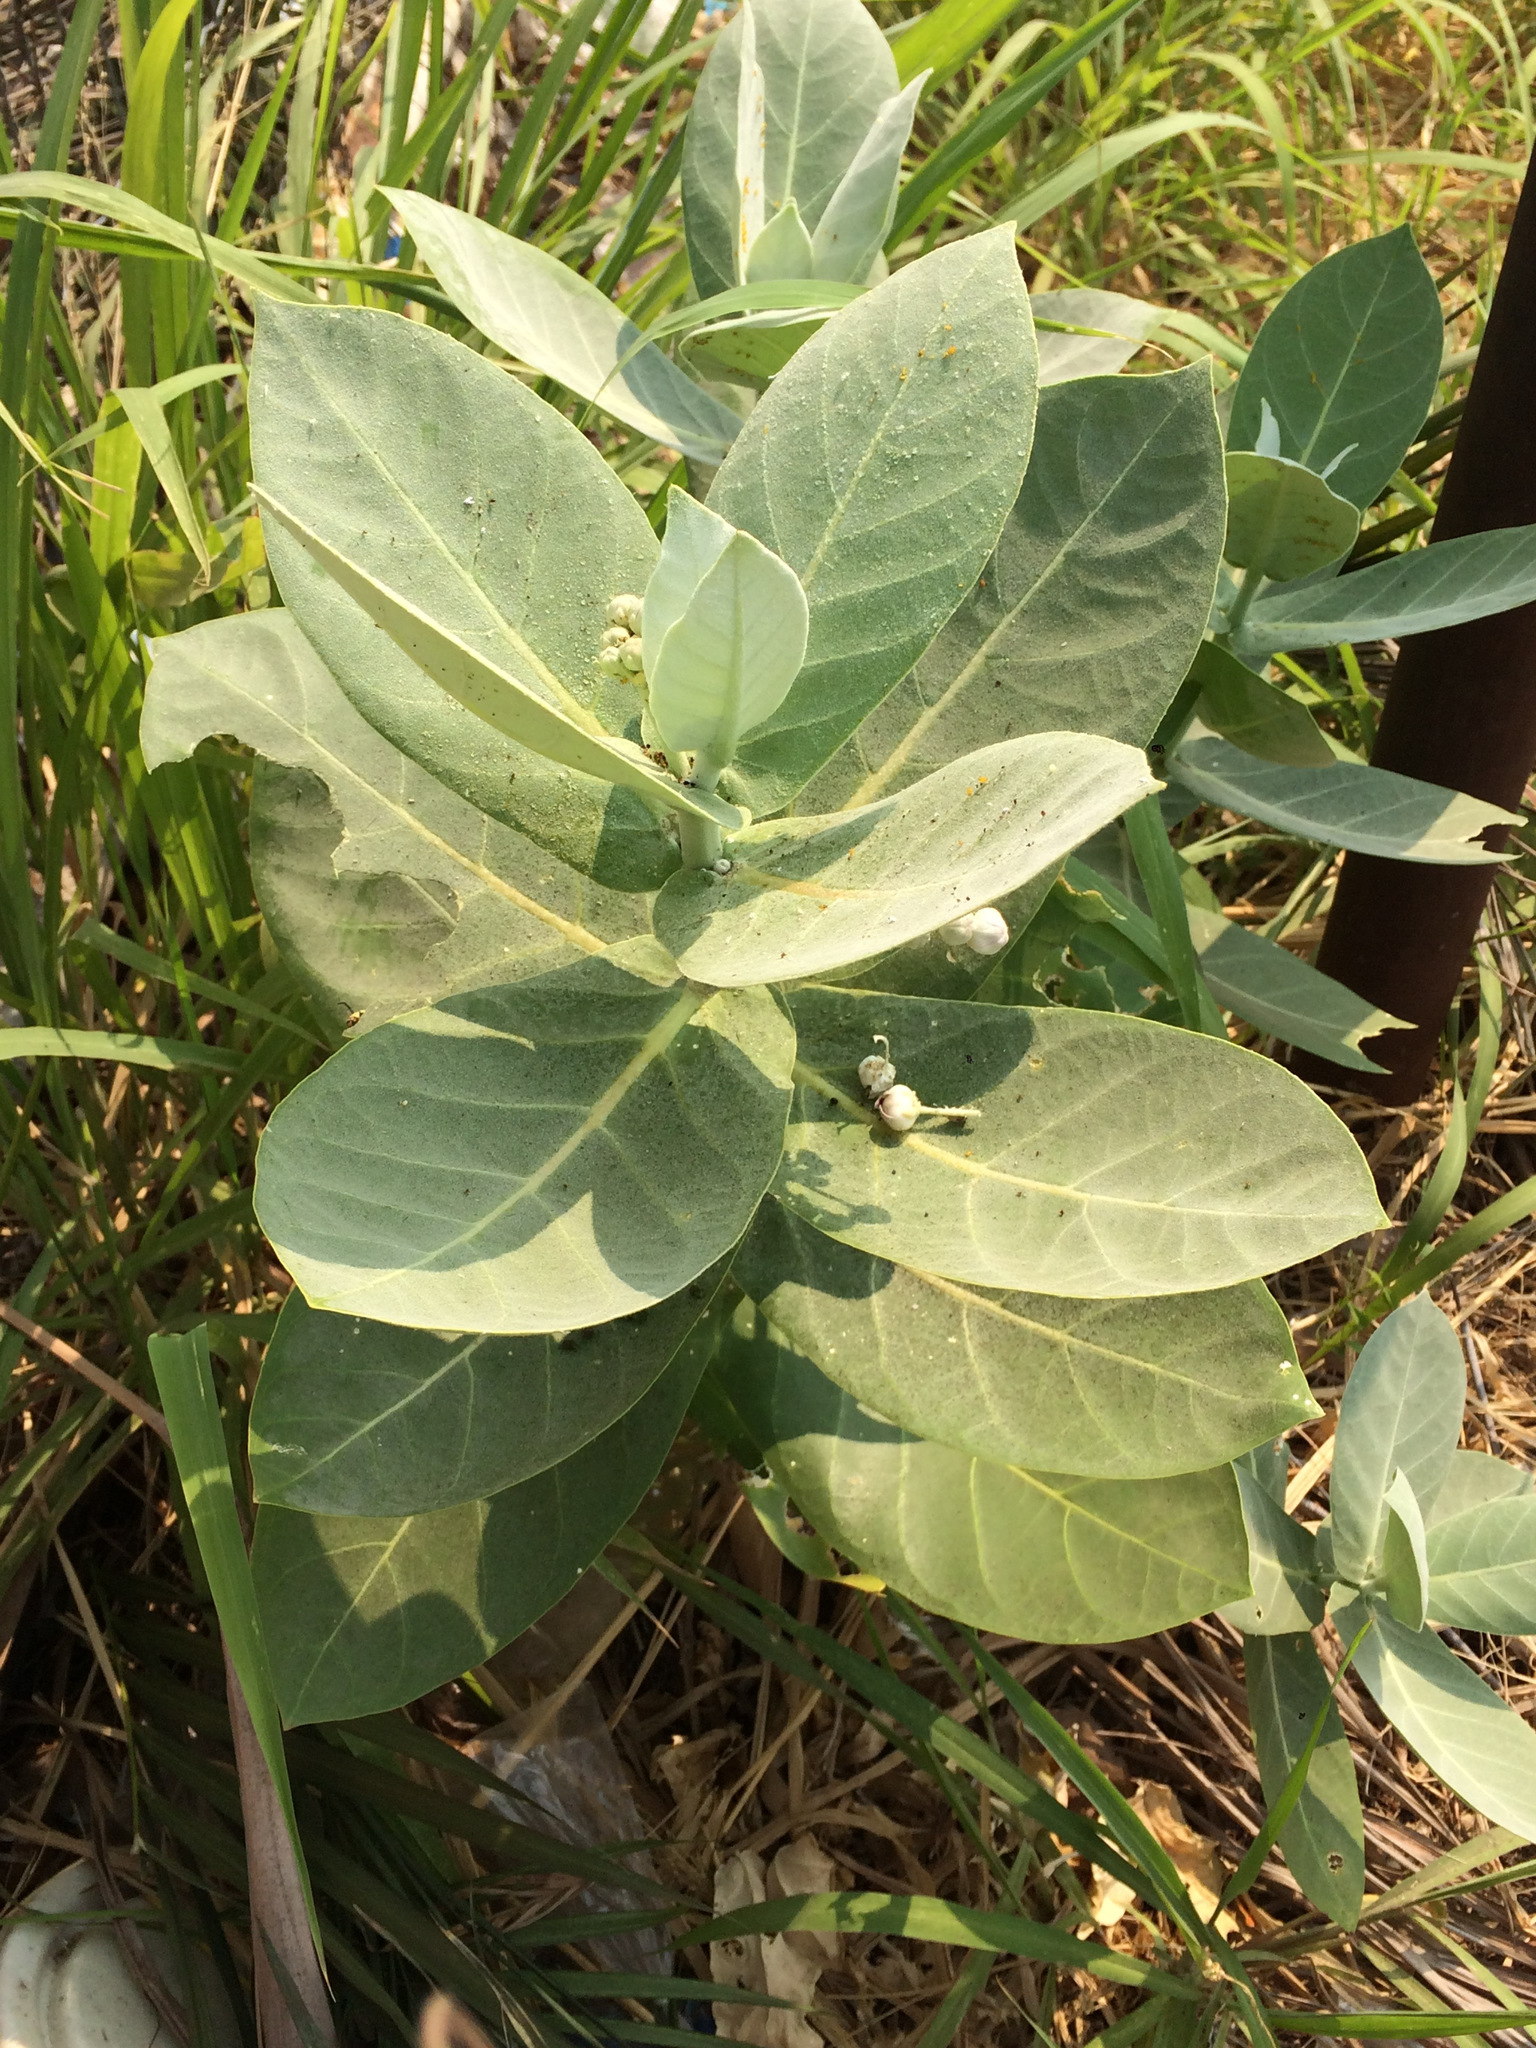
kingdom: Plantae
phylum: Tracheophyta
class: Magnoliopsida
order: Gentianales
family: Apocynaceae
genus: Calotropis
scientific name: Calotropis procera
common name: Roostertree
